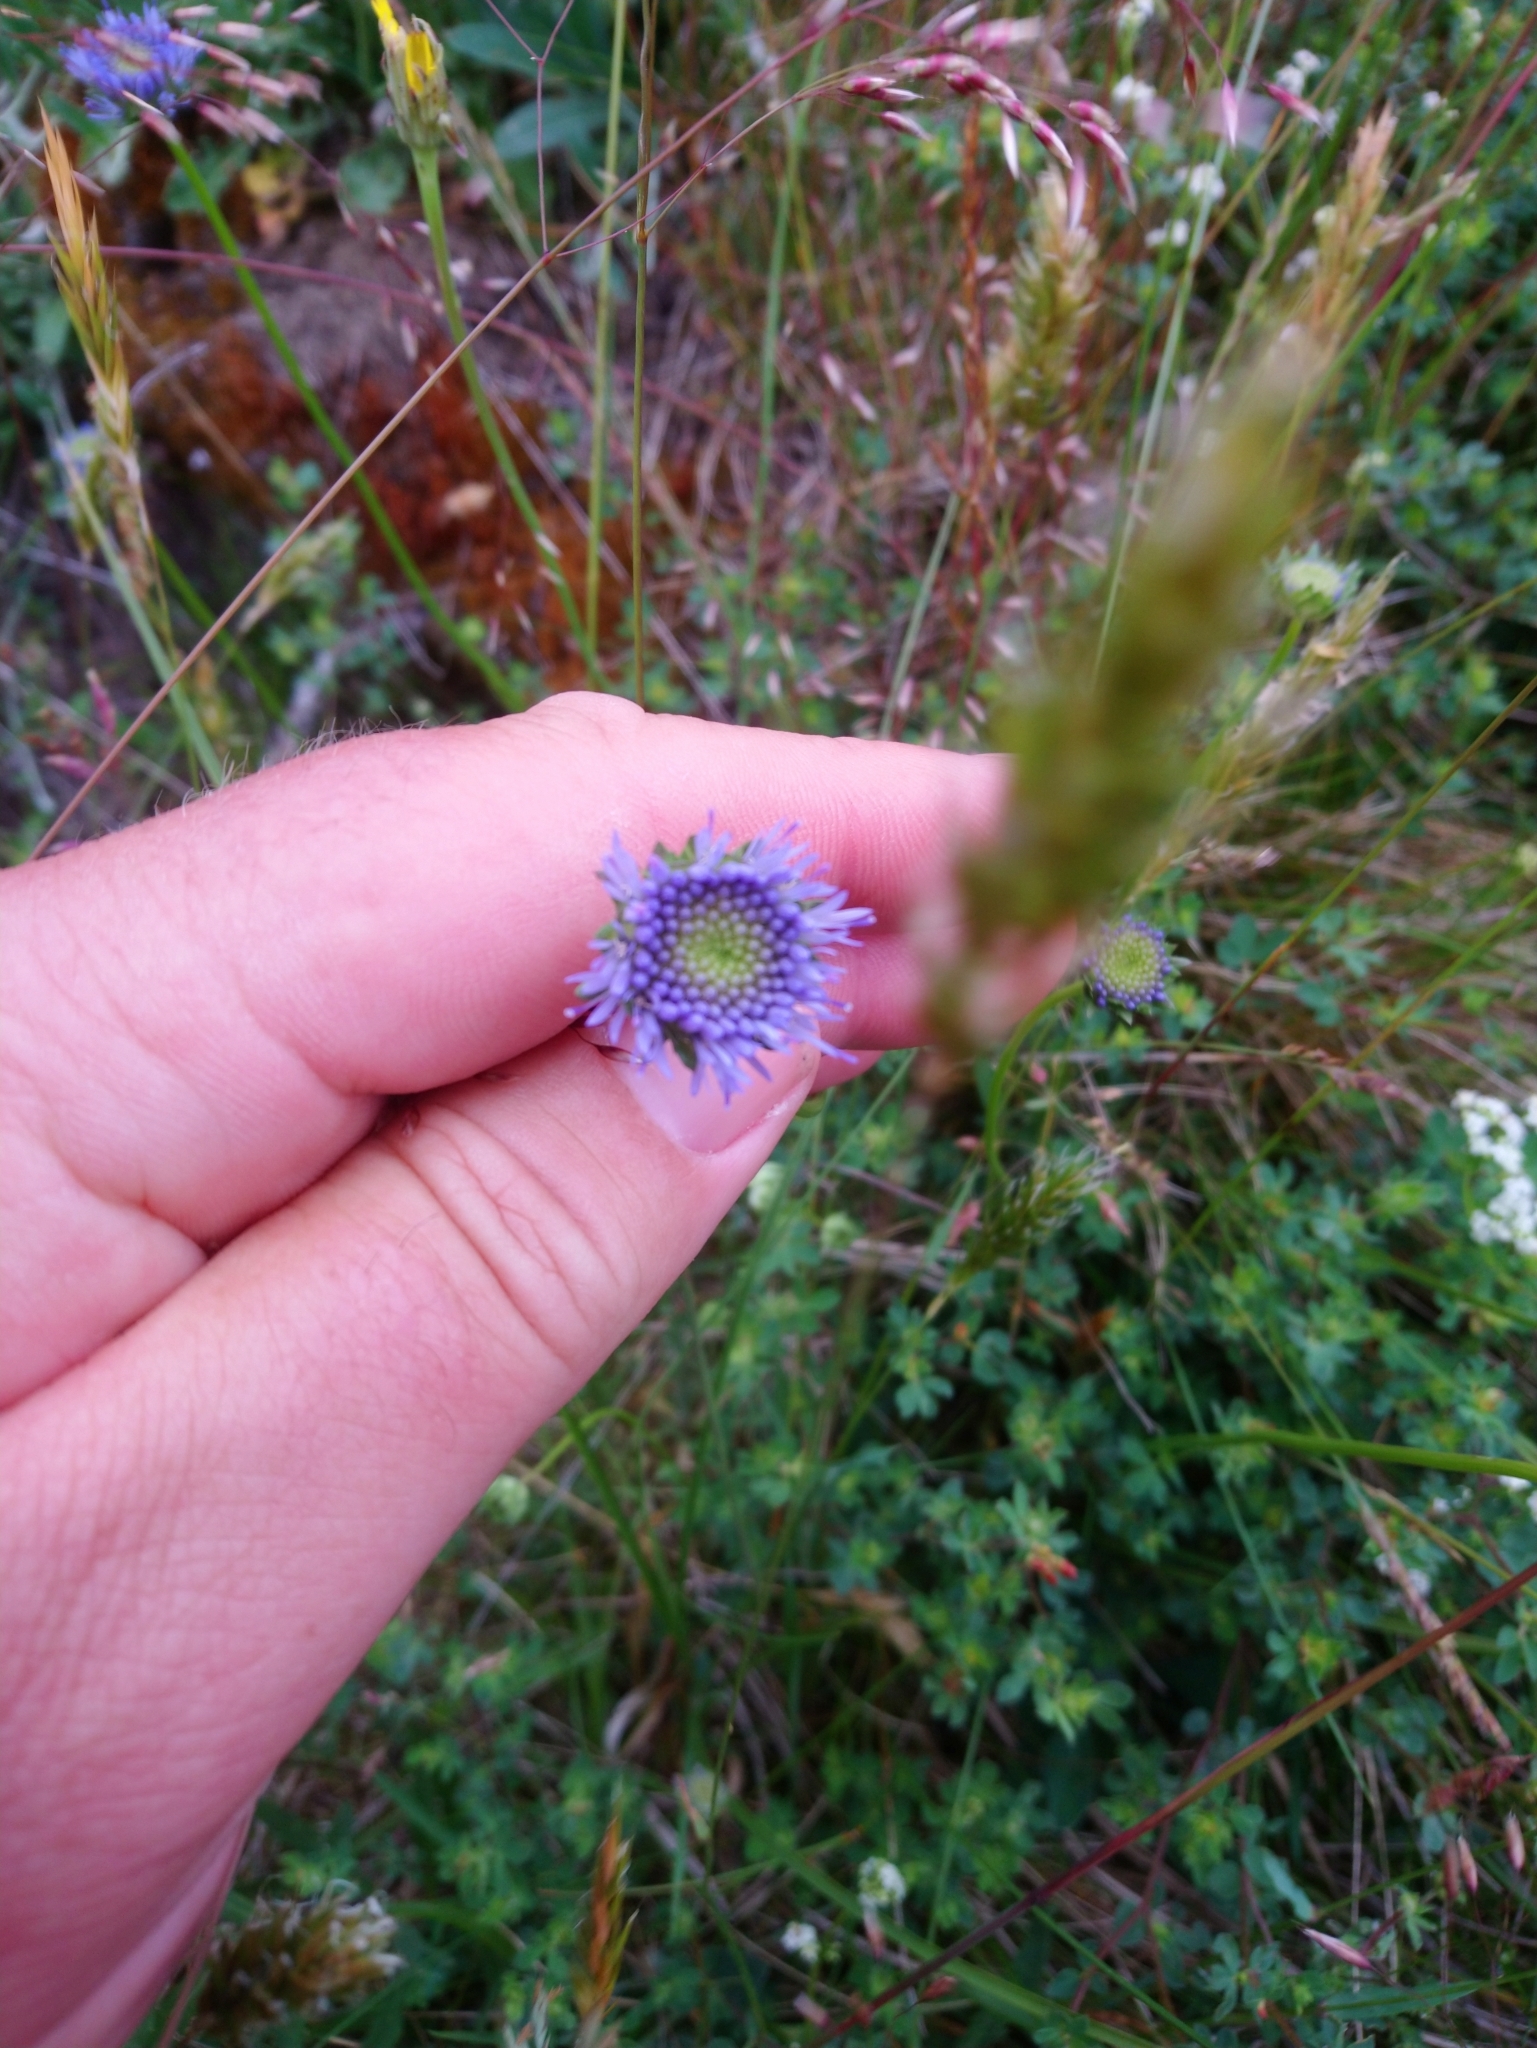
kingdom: Plantae
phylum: Tracheophyta
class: Magnoliopsida
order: Asterales
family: Campanulaceae
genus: Jasione
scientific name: Jasione montana
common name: Sheep's-bit
